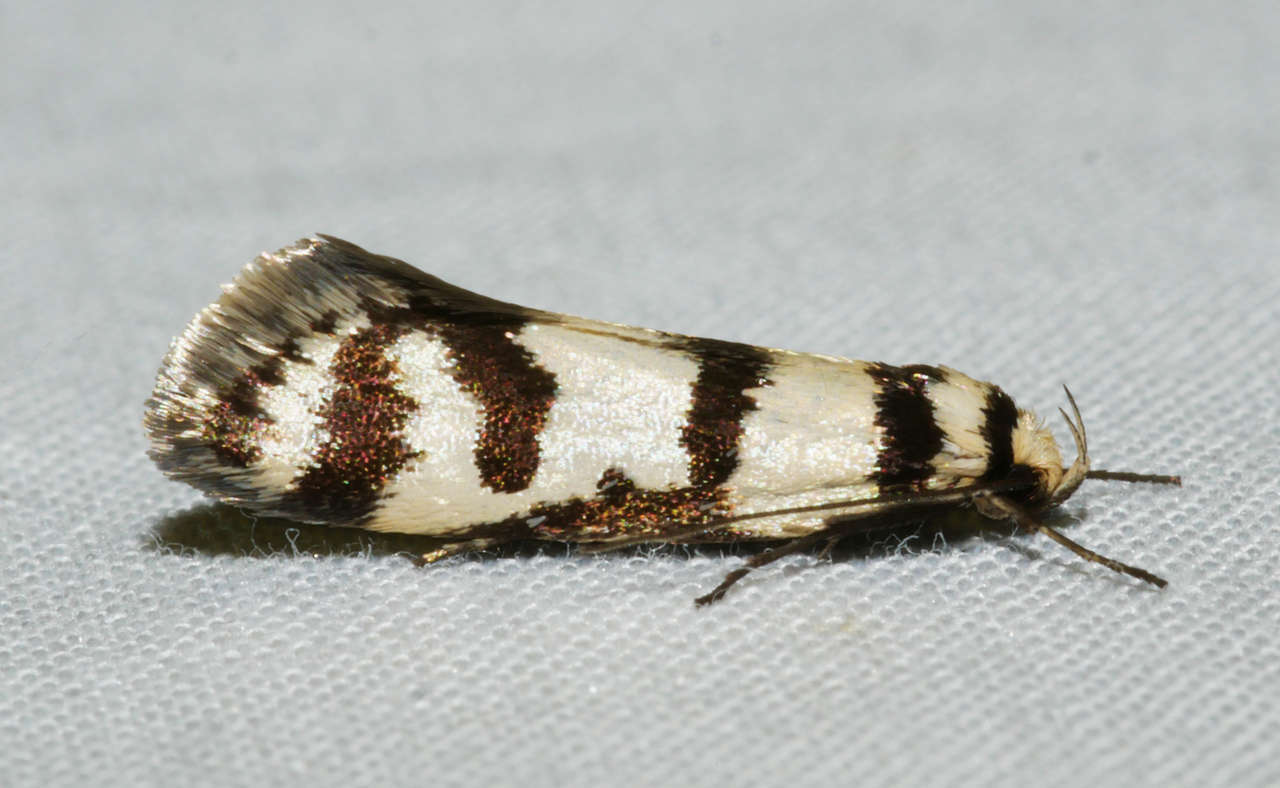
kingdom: Animalia
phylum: Arthropoda
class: Insecta
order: Lepidoptera
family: Oecophoridae
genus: Philobota
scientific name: Philobota impletella
